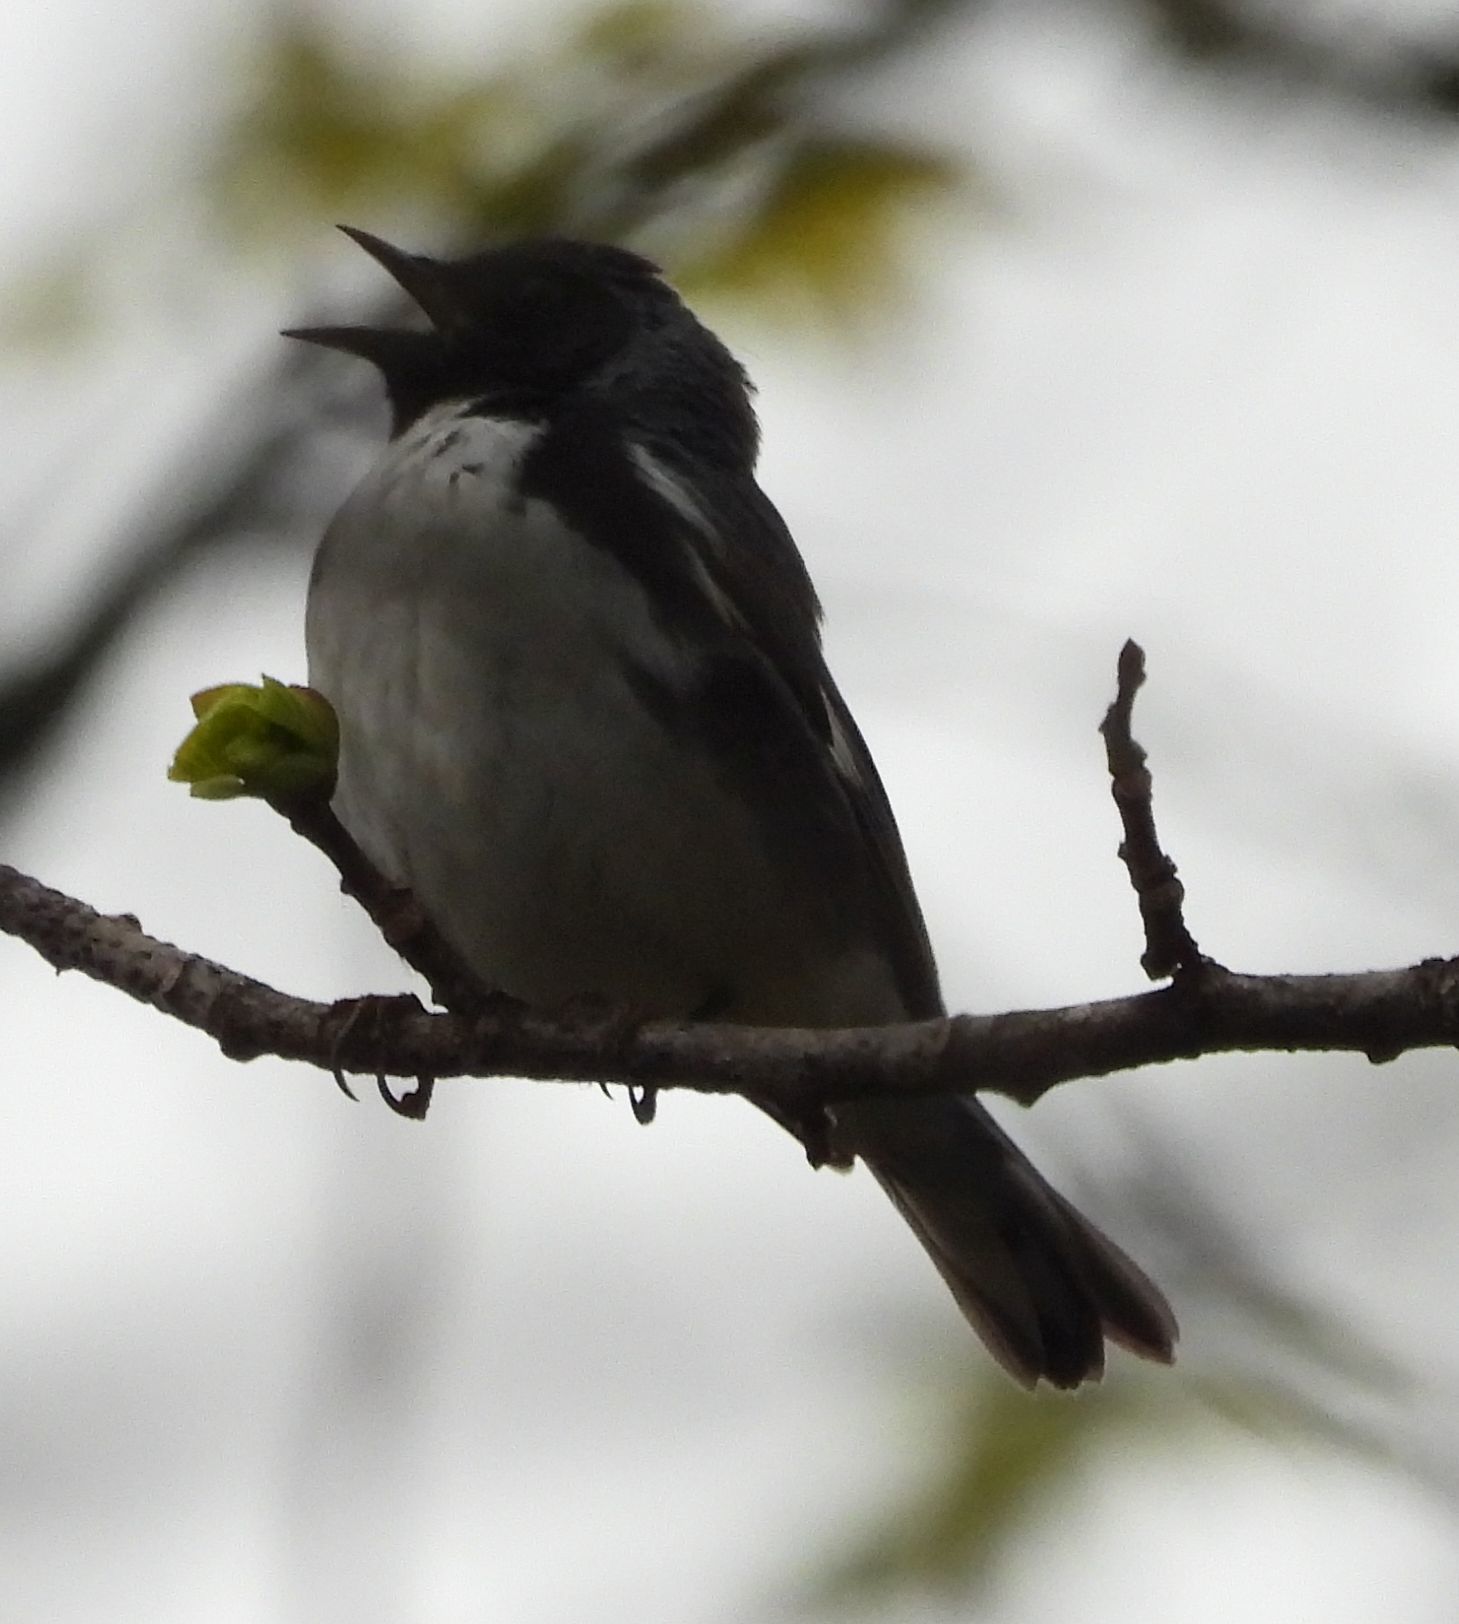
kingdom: Animalia
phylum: Chordata
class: Aves
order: Passeriformes
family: Parulidae
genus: Setophaga
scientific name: Setophaga caerulescens
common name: Black-throated blue warbler
